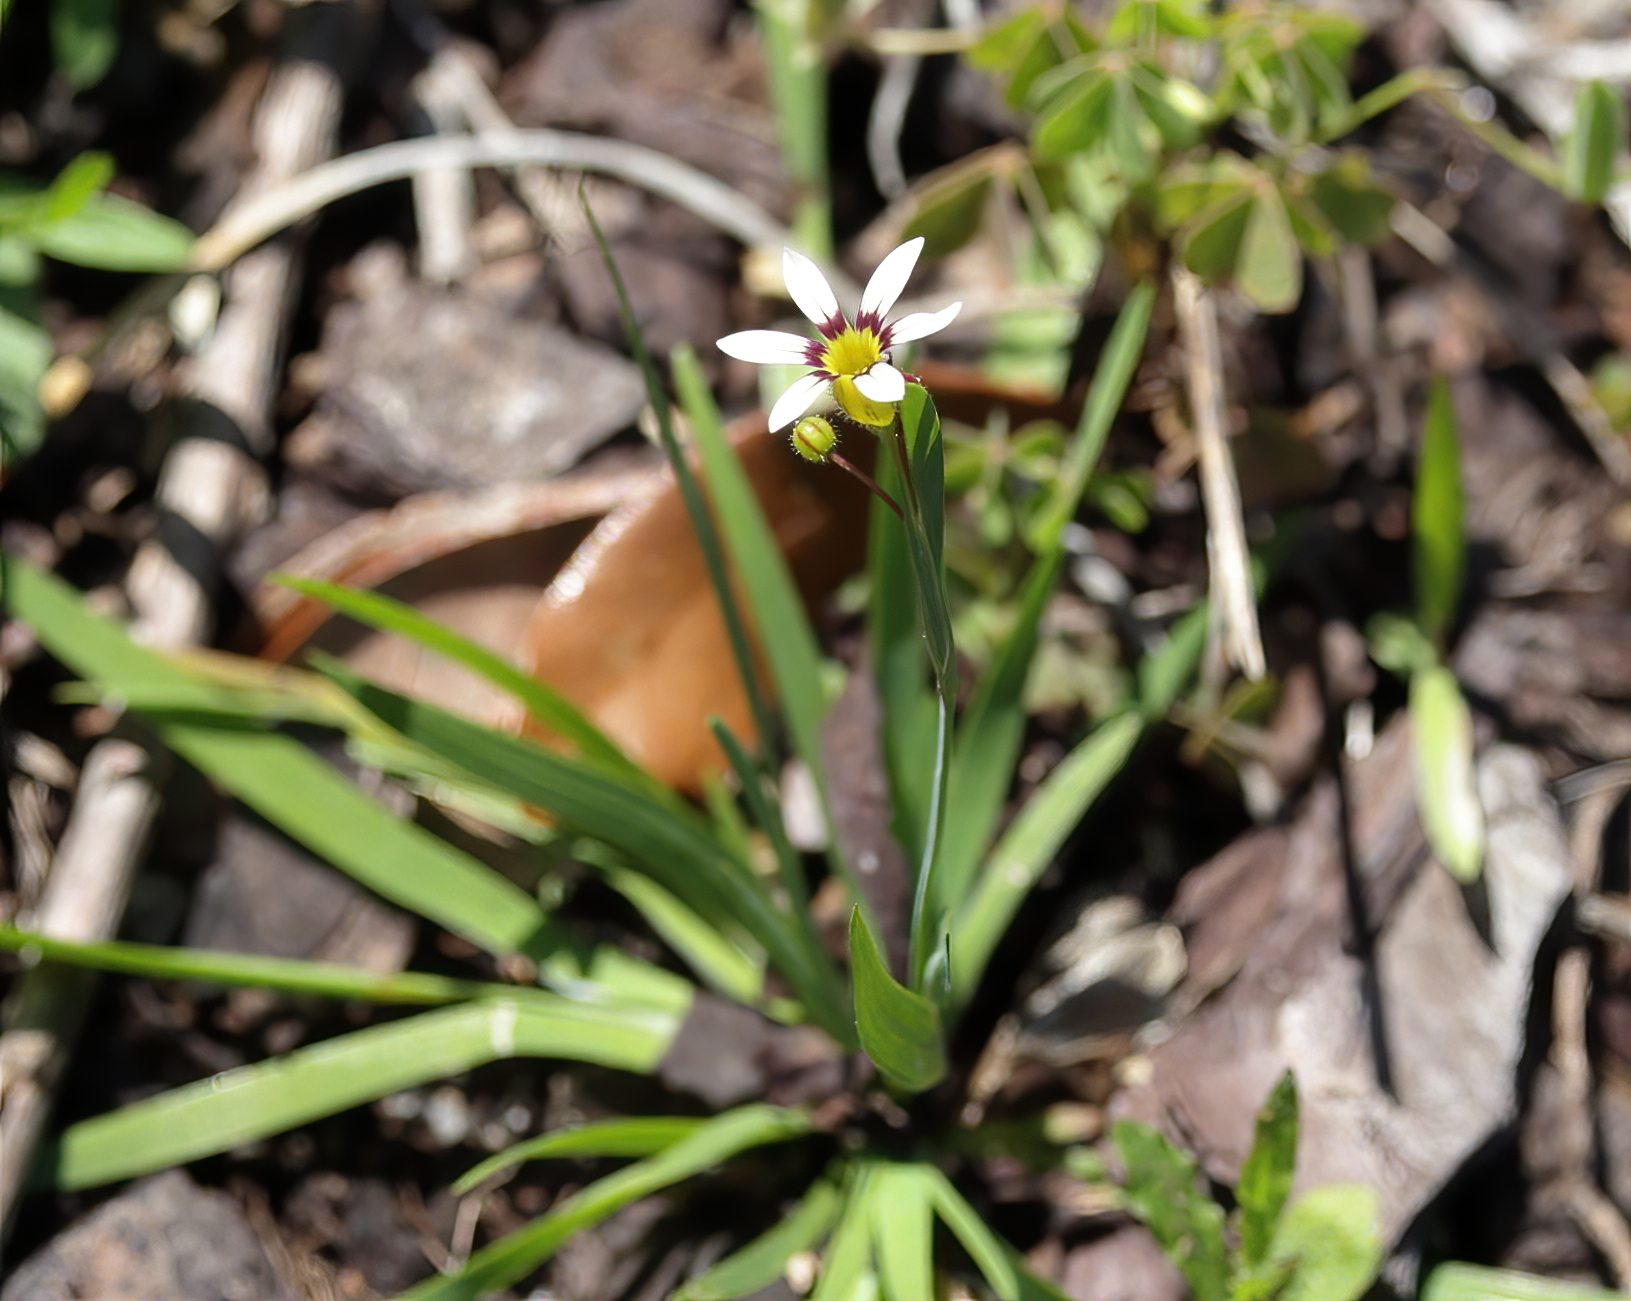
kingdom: Plantae
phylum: Tracheophyta
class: Liliopsida
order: Asparagales
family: Iridaceae
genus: Sisyrinchium
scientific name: Sisyrinchium micranthum
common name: Bermuda pigroot
